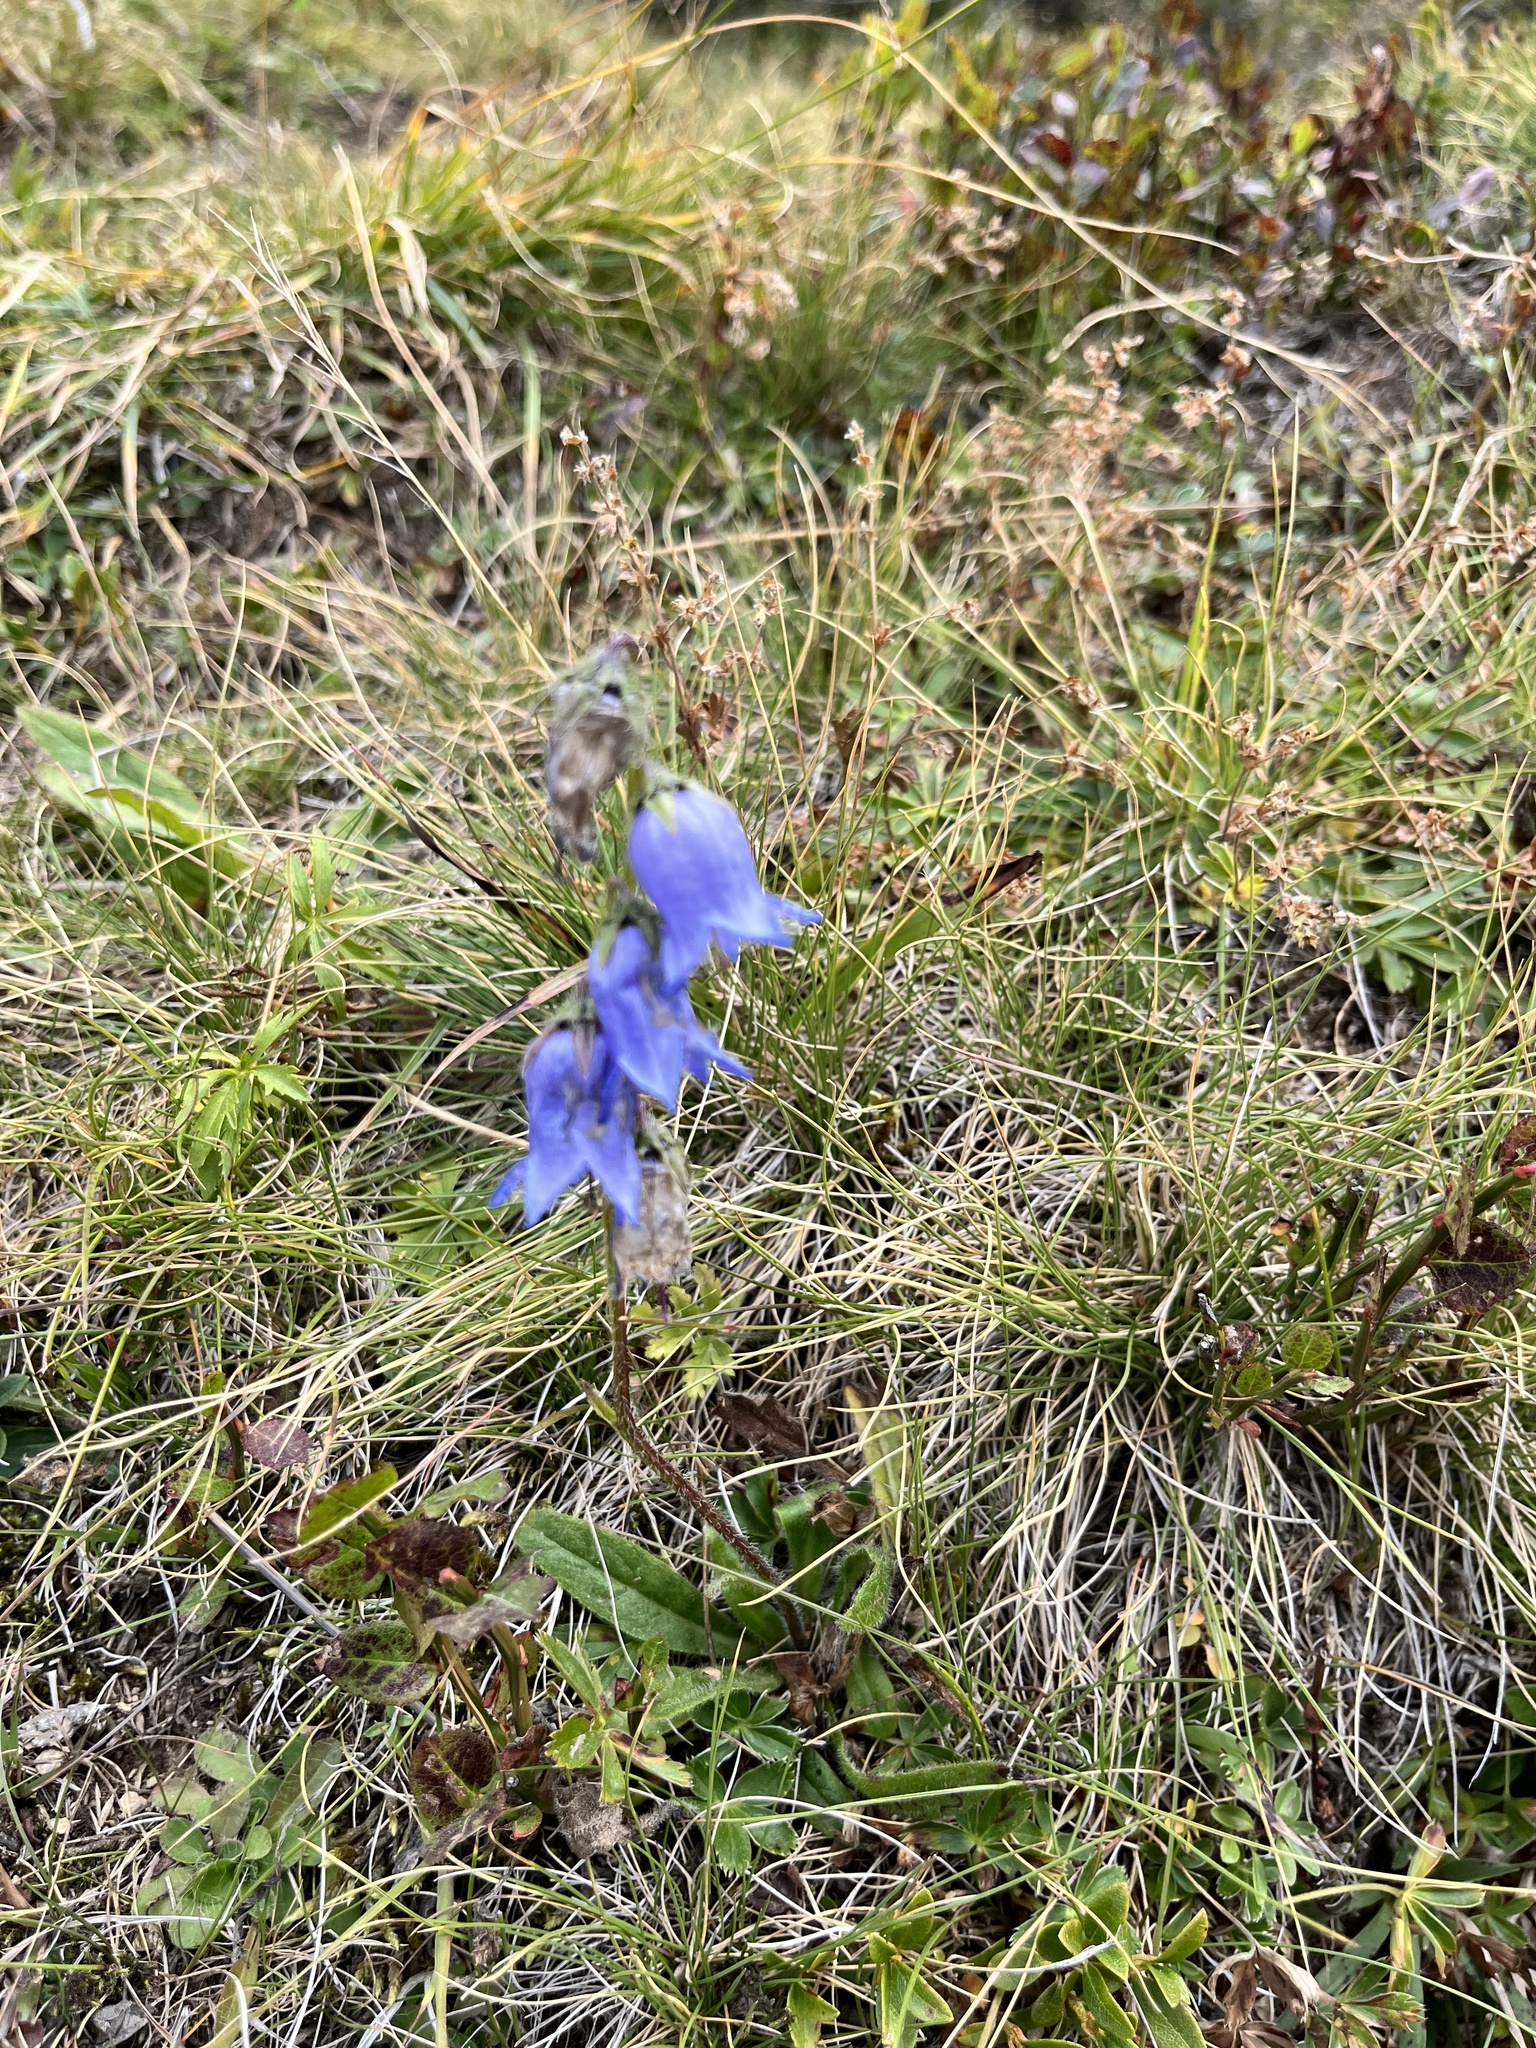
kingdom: Plantae
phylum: Tracheophyta
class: Magnoliopsida
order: Asterales
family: Campanulaceae
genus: Campanula
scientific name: Campanula barbata
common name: Bearded bellflower
